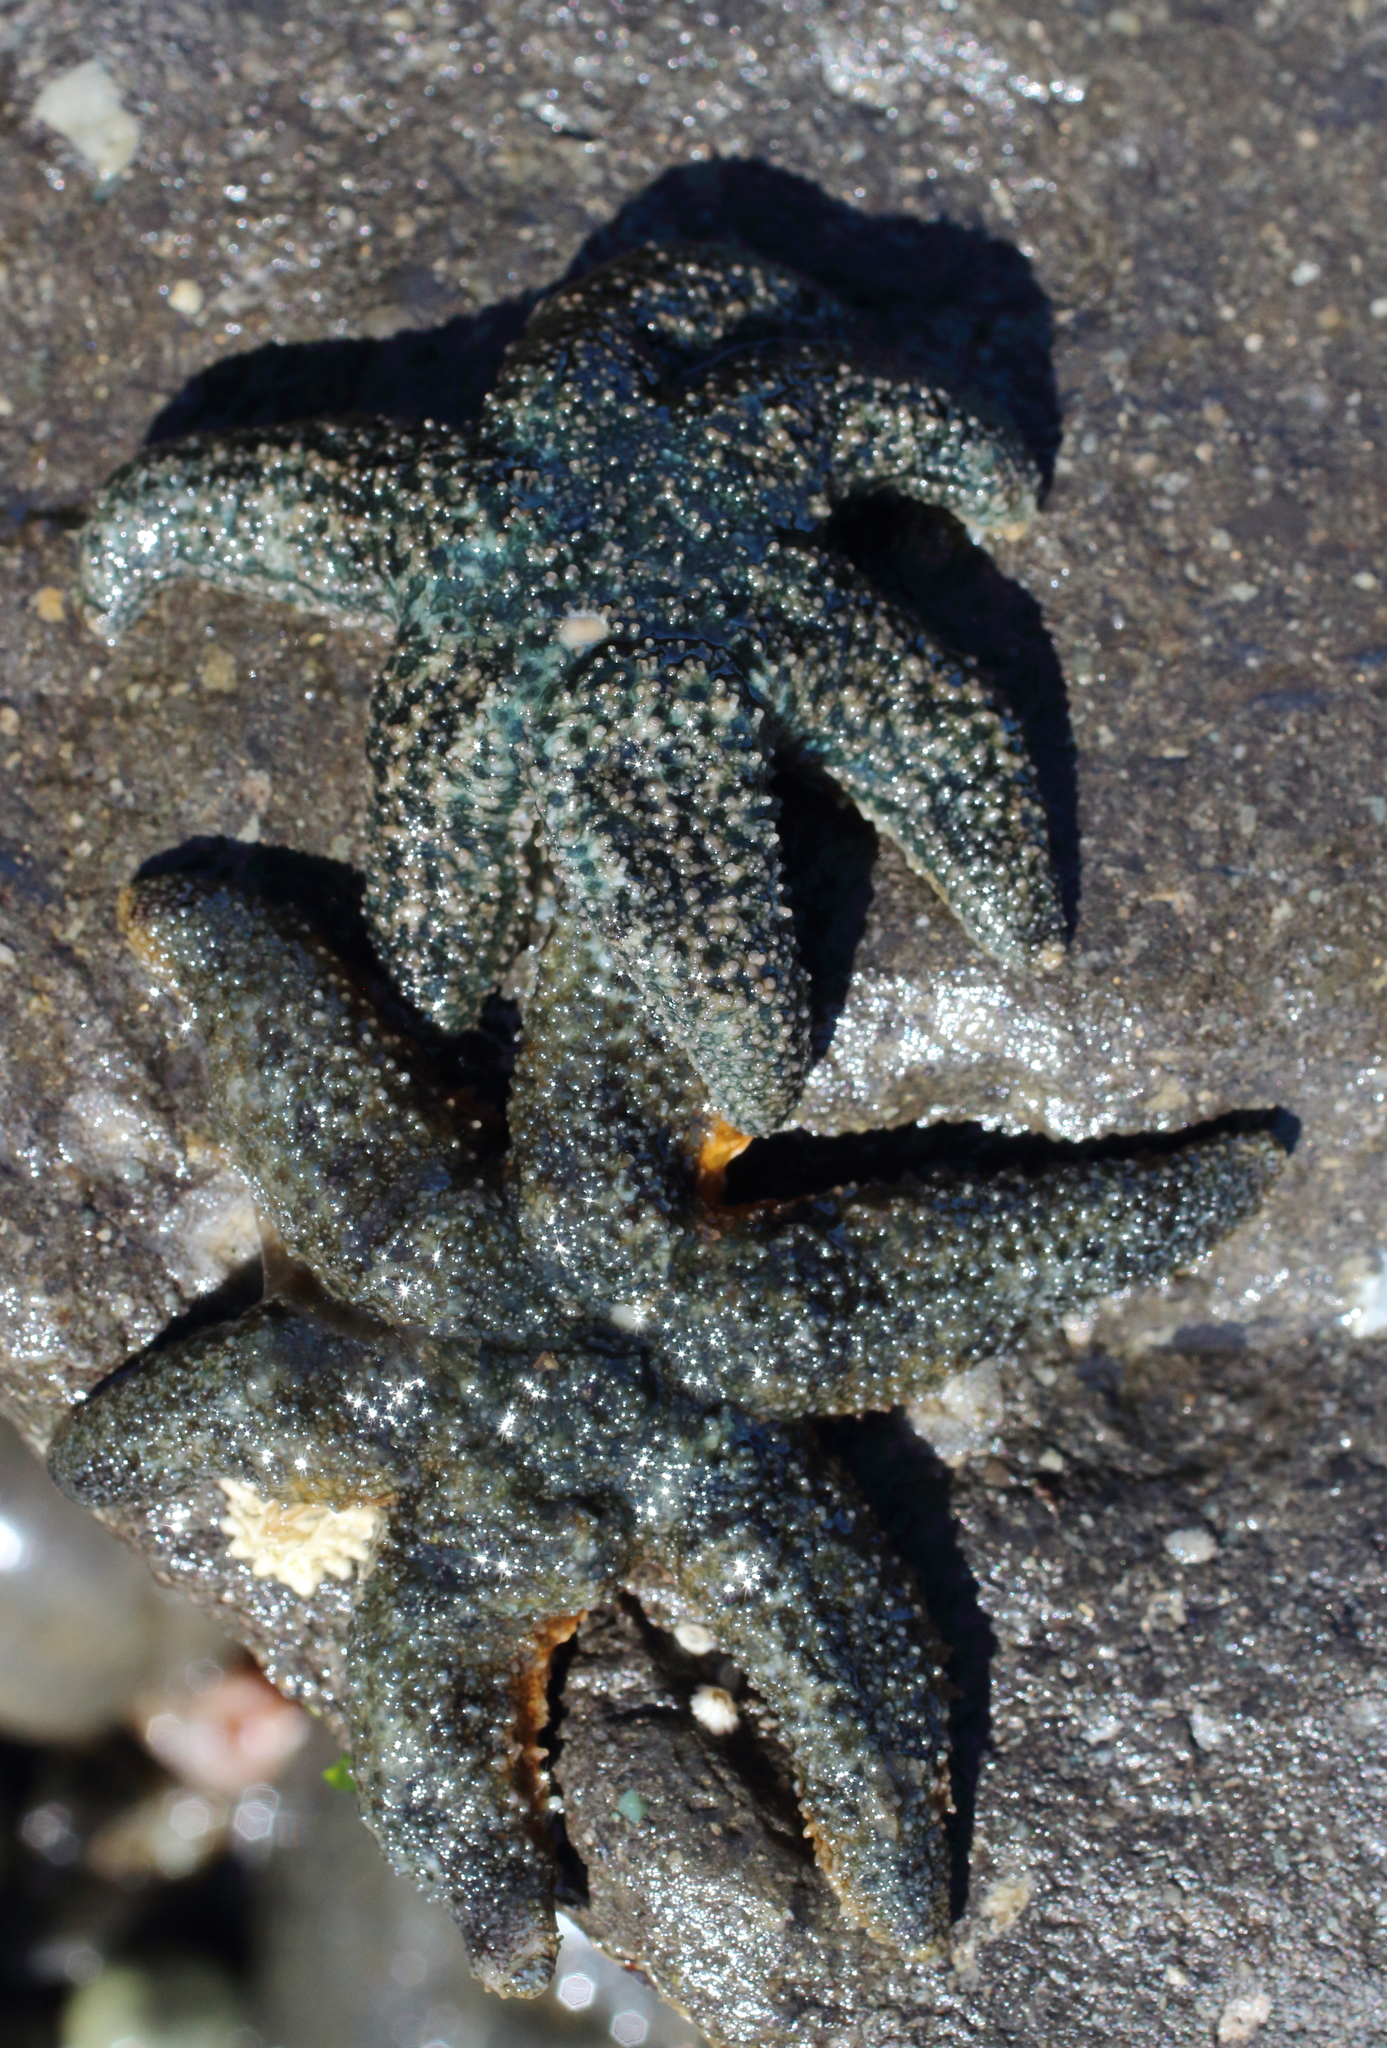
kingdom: Animalia
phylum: Echinodermata
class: Asteroidea
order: Forcipulatida
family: Asteriidae
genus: Leptasterias
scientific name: Leptasterias hexactis
